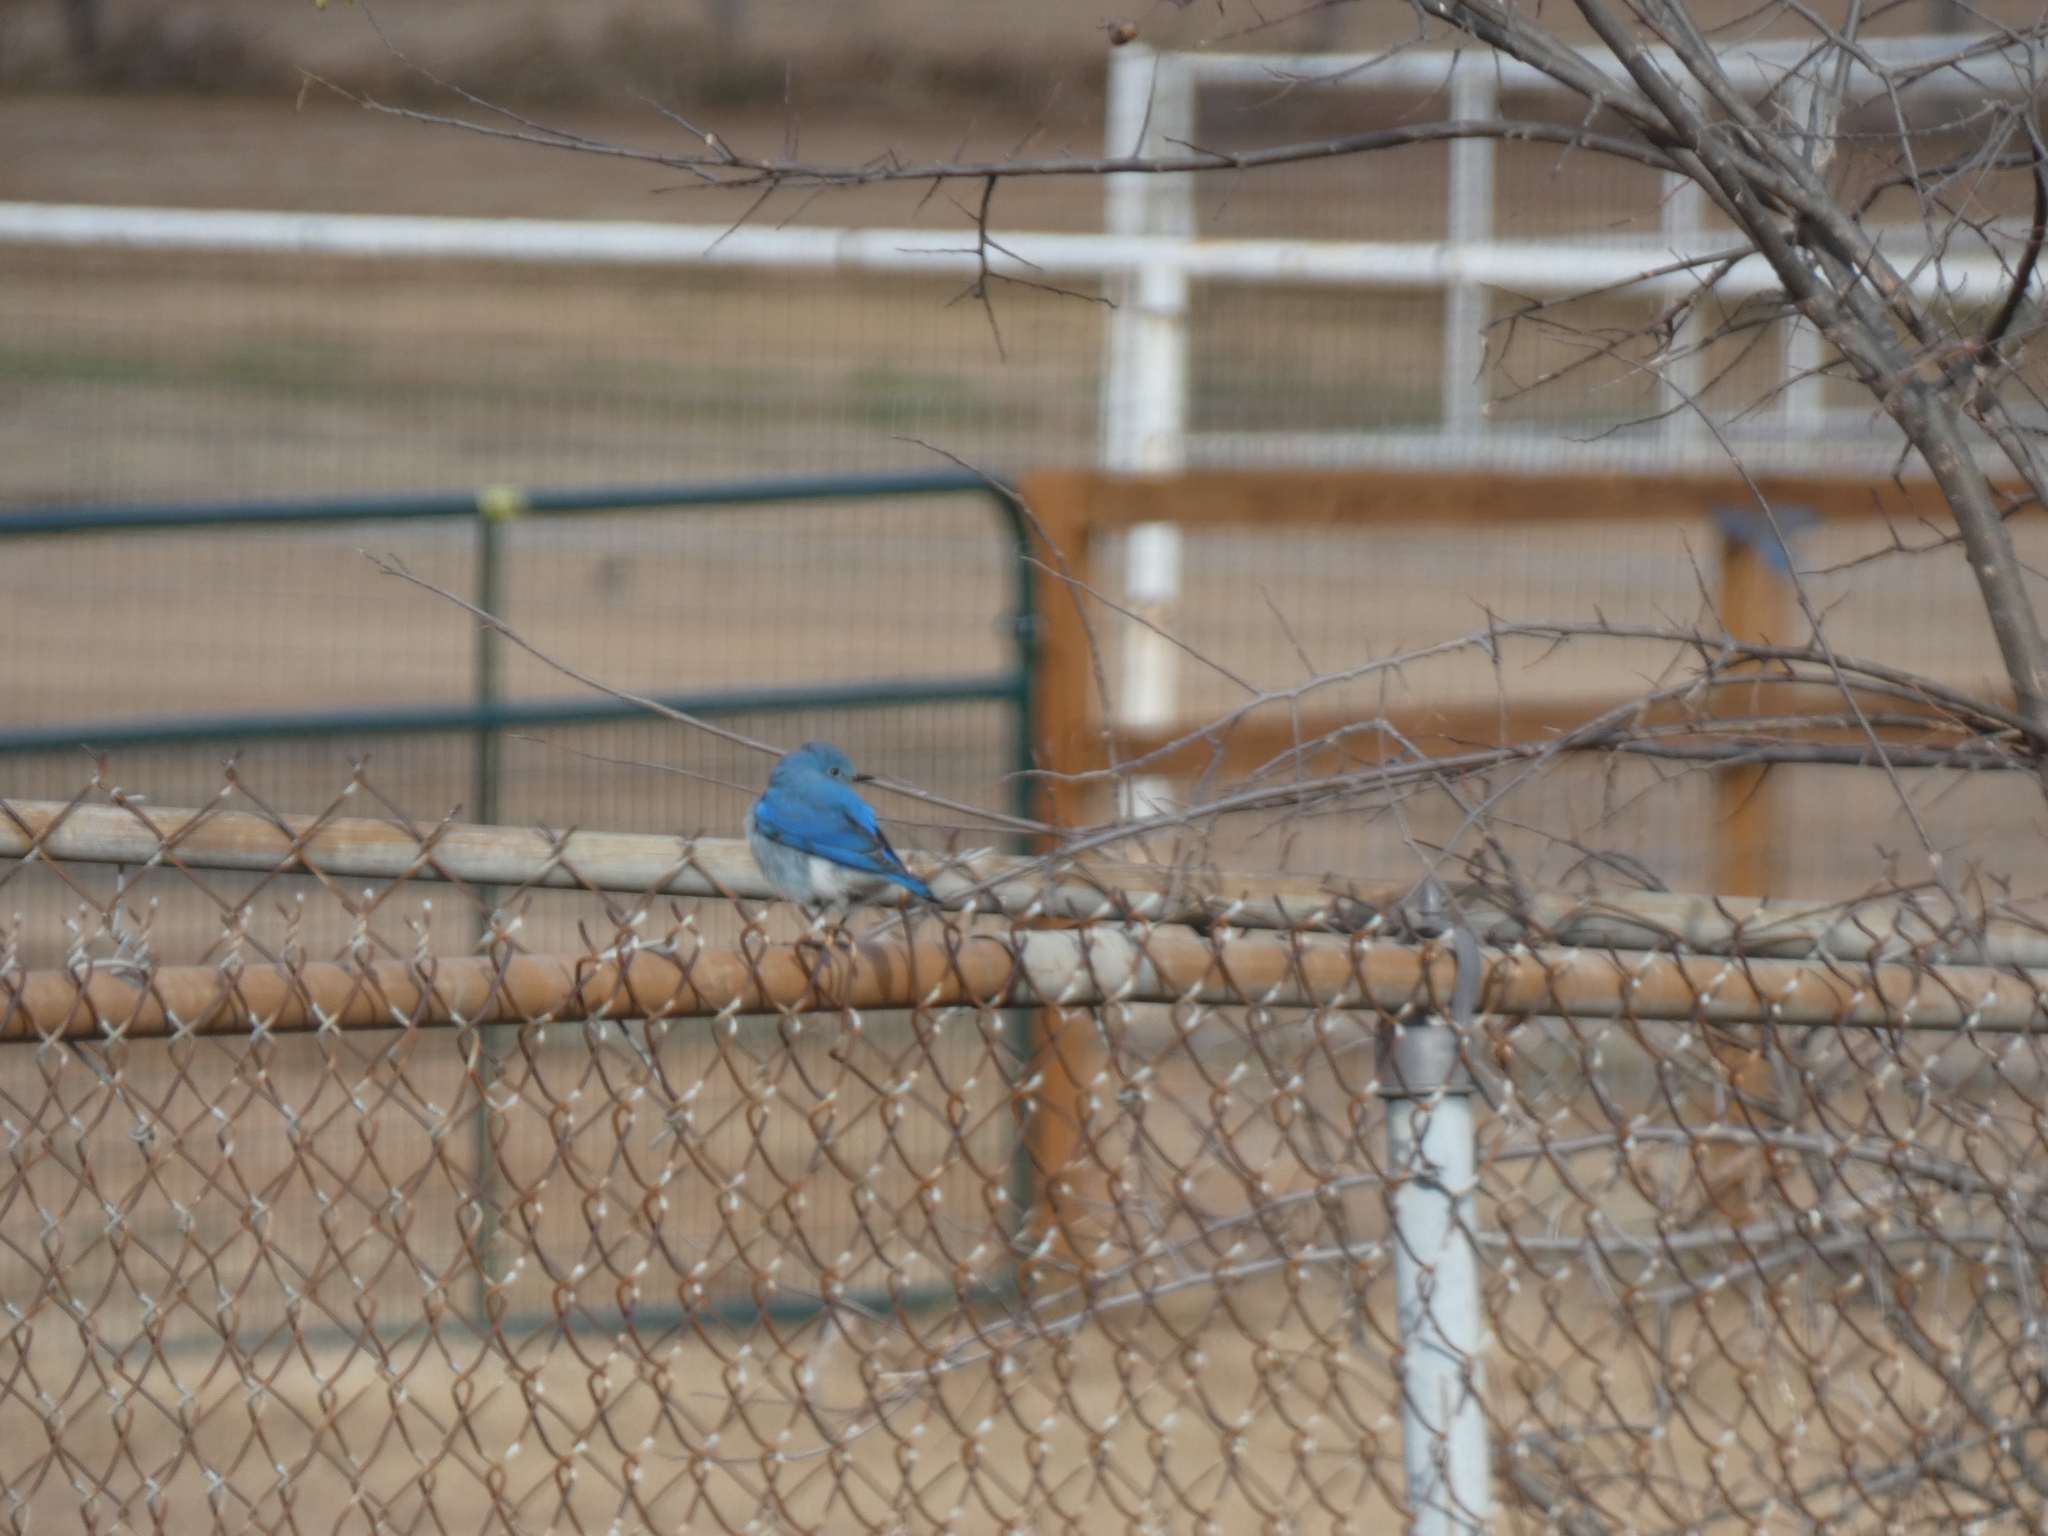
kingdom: Animalia
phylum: Chordata
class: Aves
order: Passeriformes
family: Turdidae
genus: Sialia
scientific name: Sialia currucoides
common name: Mountain bluebird
